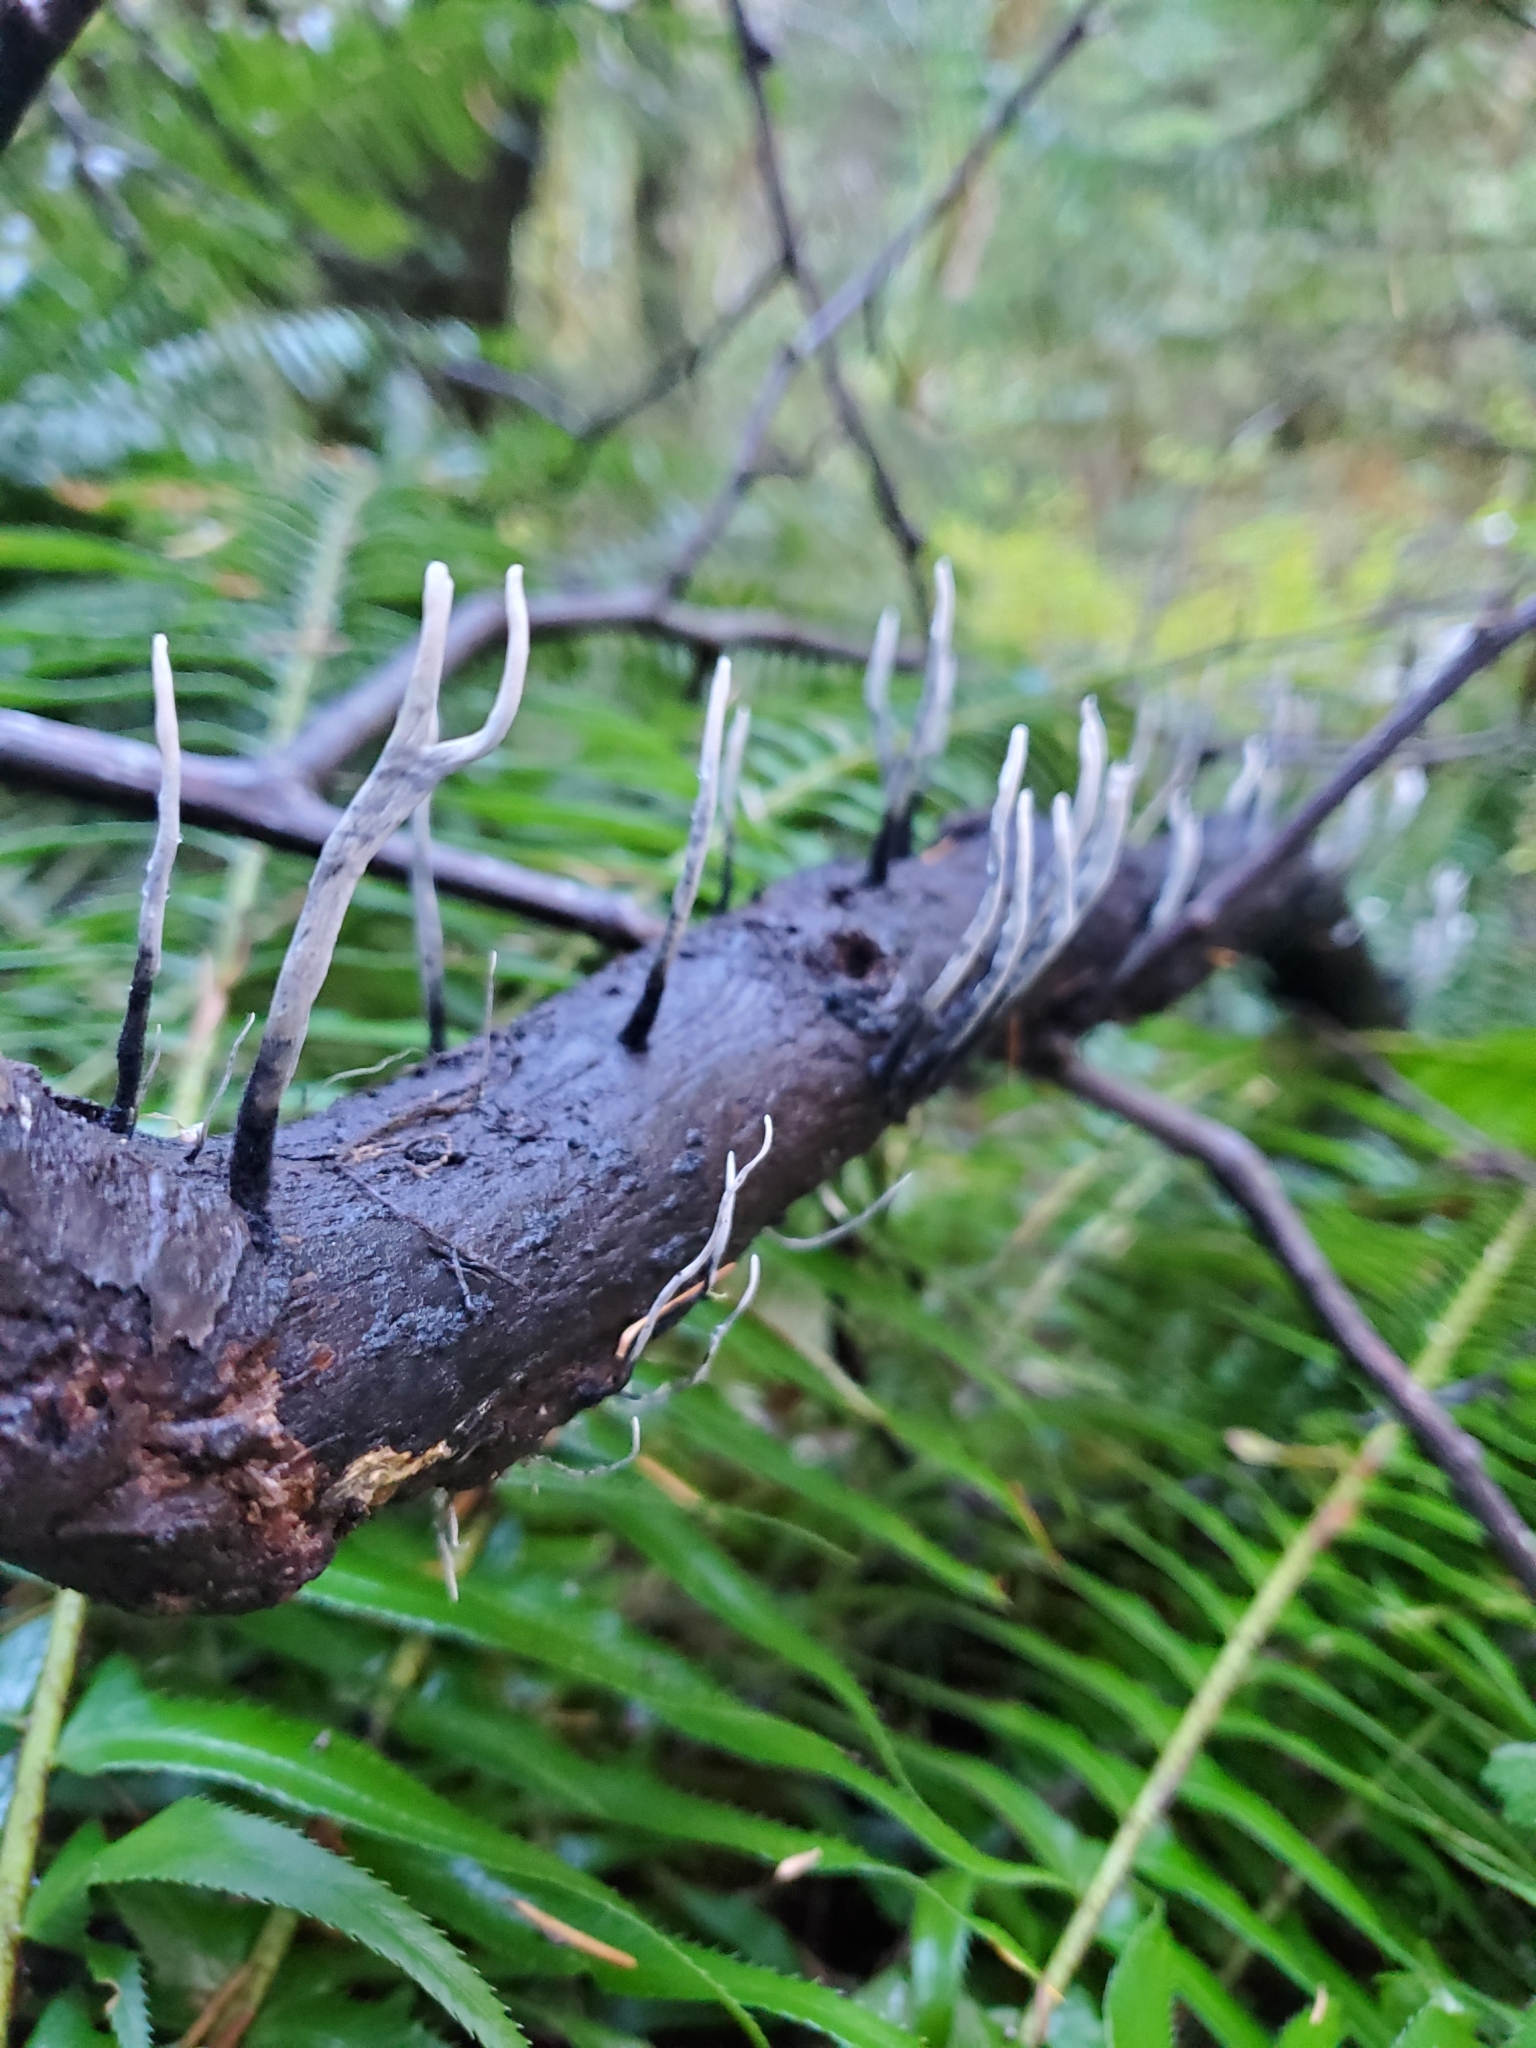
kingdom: Fungi
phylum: Ascomycota
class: Sordariomycetes
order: Xylariales
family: Xylariaceae
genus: Xylaria
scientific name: Xylaria hypoxylon
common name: Candle-snuff fungus
